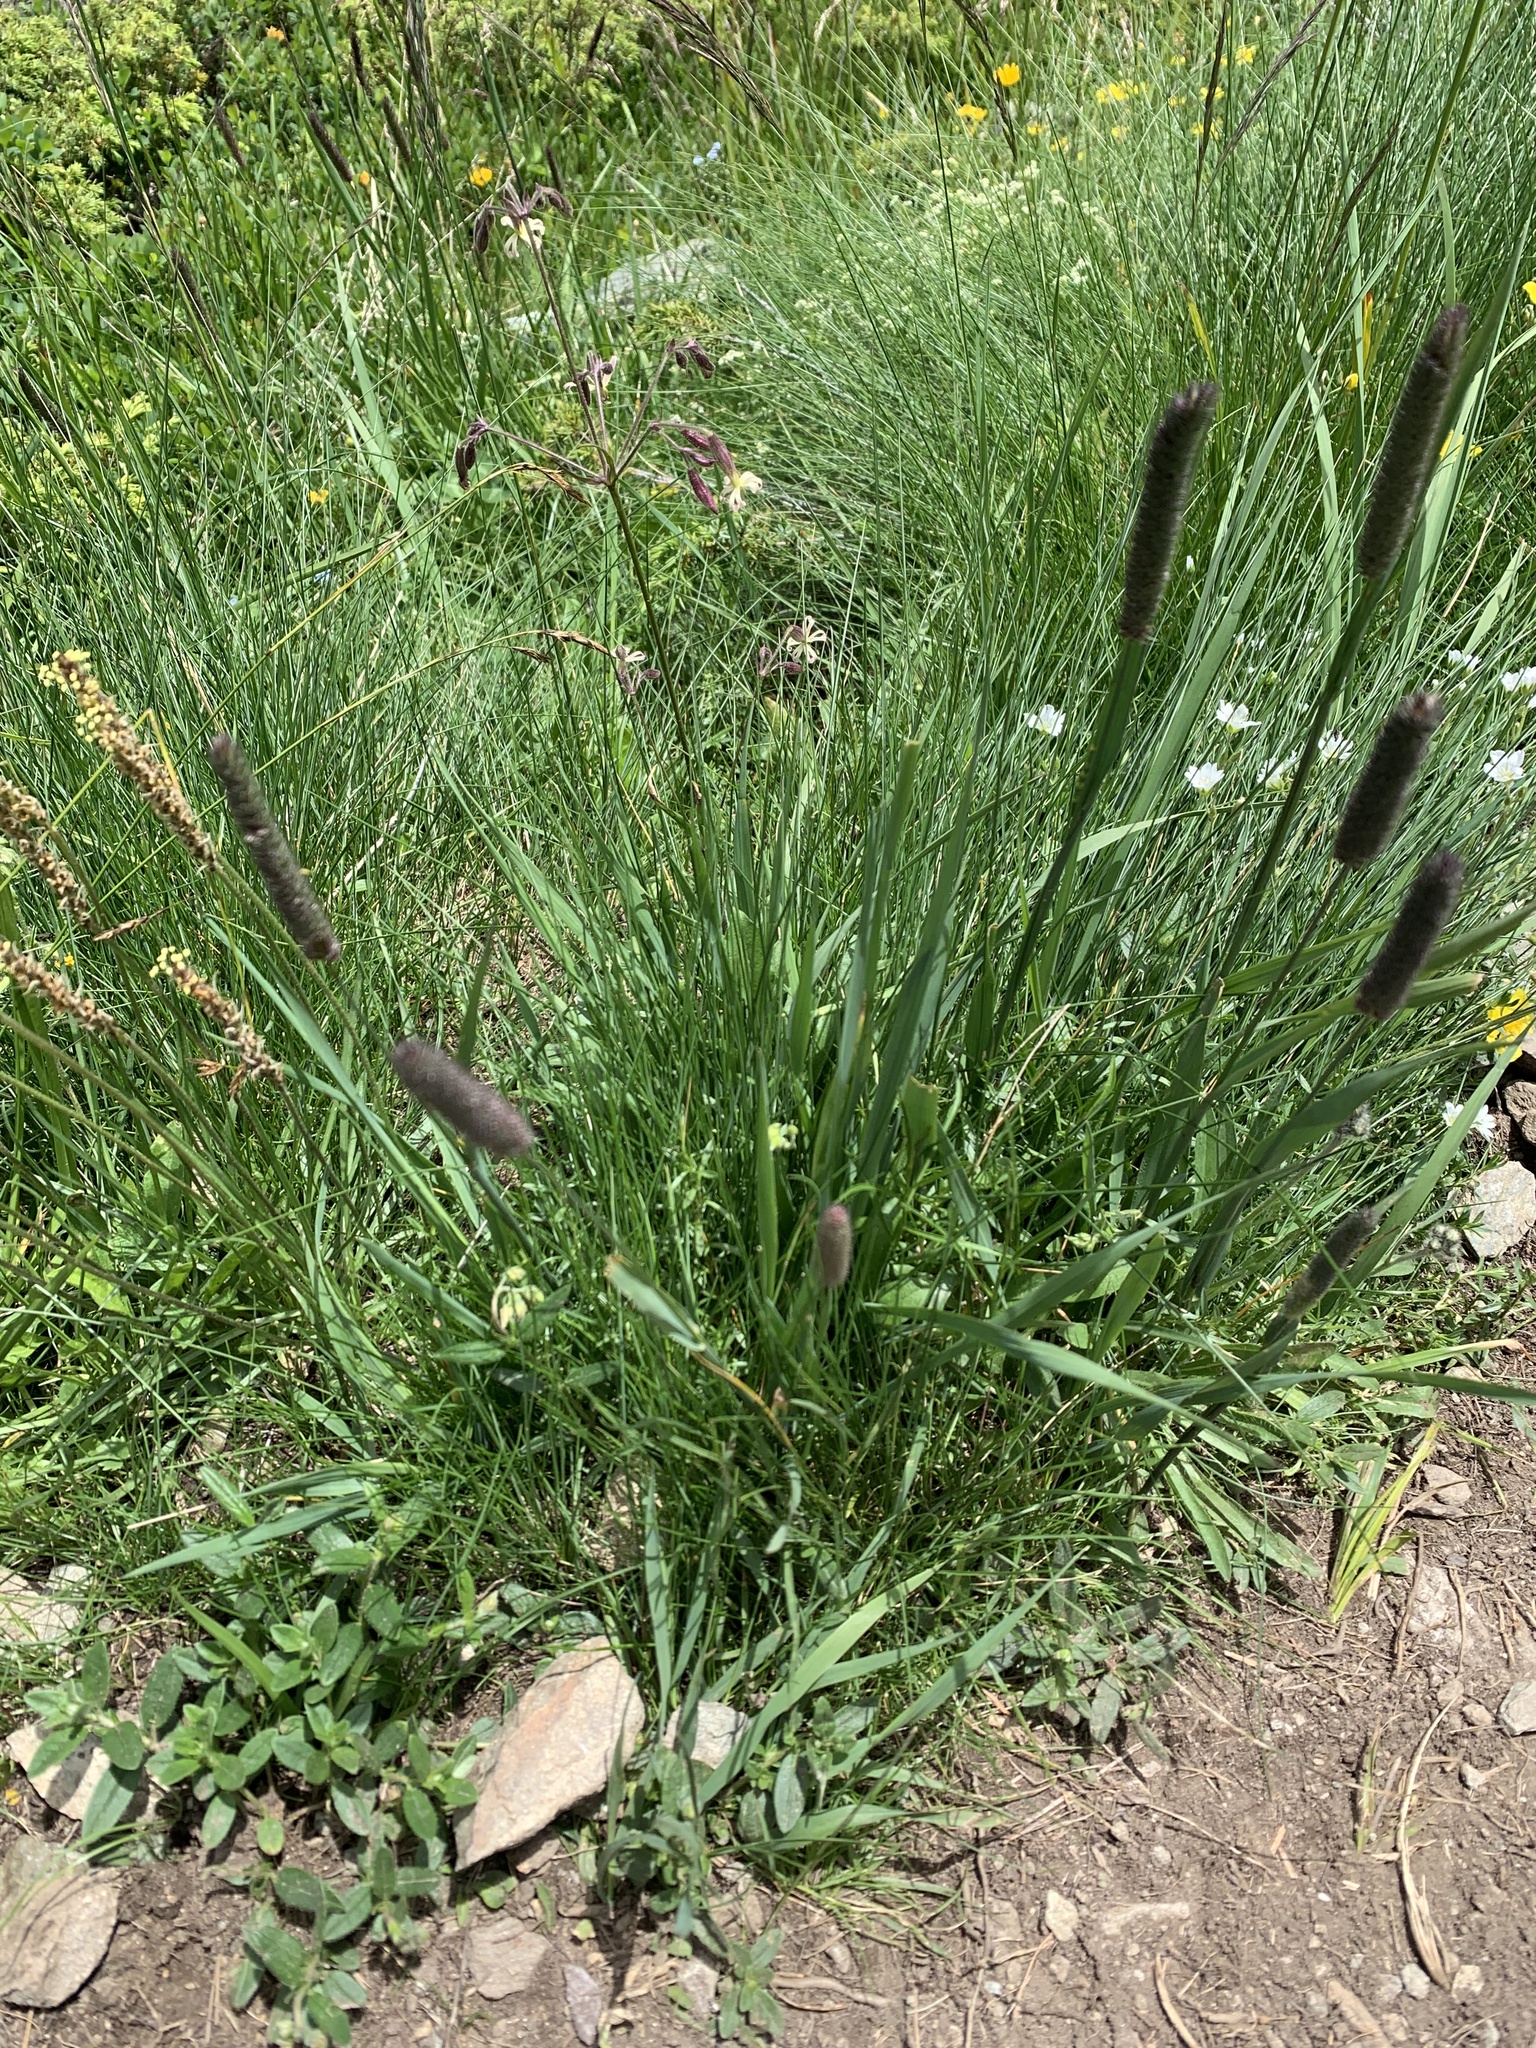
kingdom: Plantae
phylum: Tracheophyta
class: Liliopsida
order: Poales
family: Poaceae
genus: Phleum
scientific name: Phleum alpinum
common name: Alpine cat's-tail
